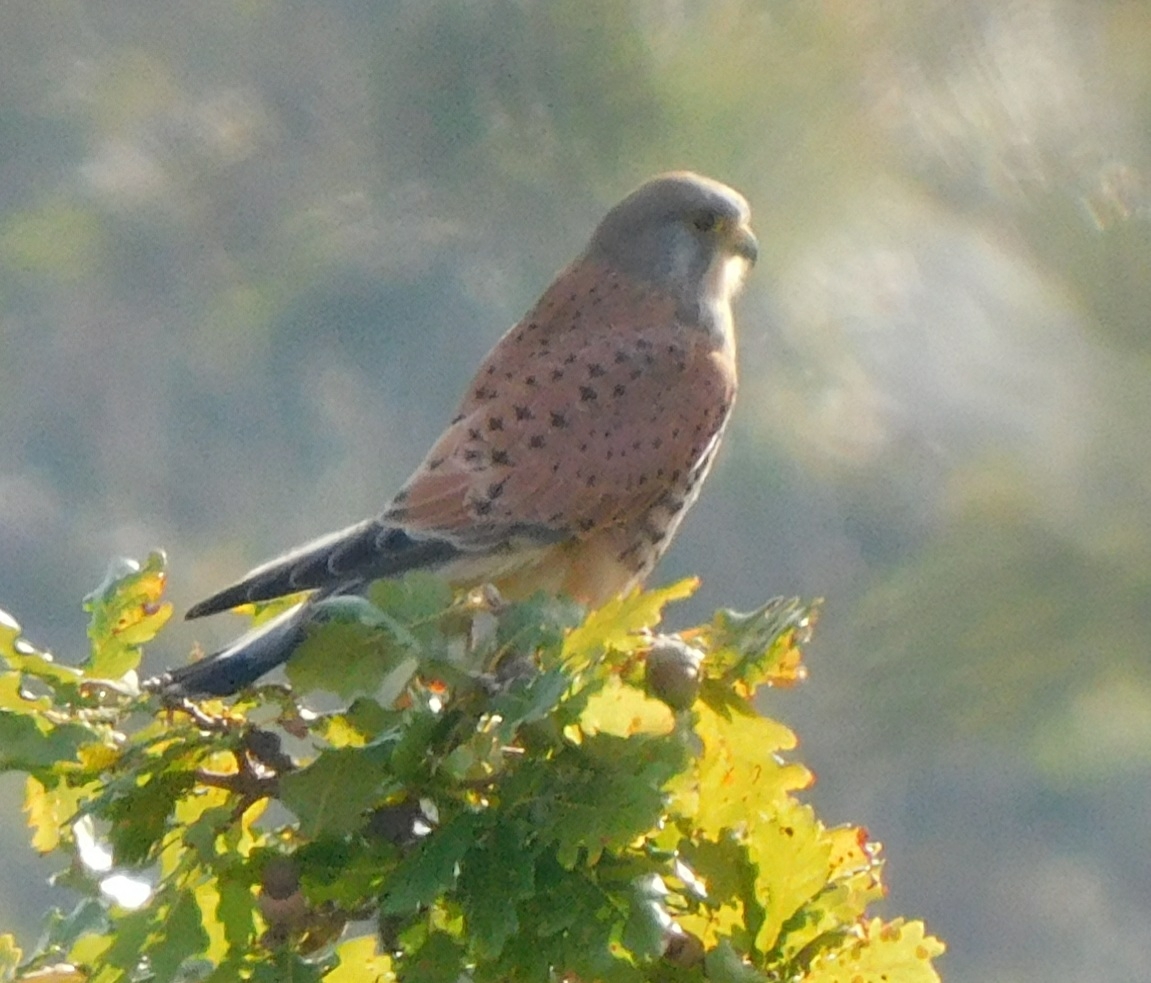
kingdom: Animalia
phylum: Chordata
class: Aves
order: Falconiformes
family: Falconidae
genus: Falco
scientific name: Falco tinnunculus
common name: Common kestrel
